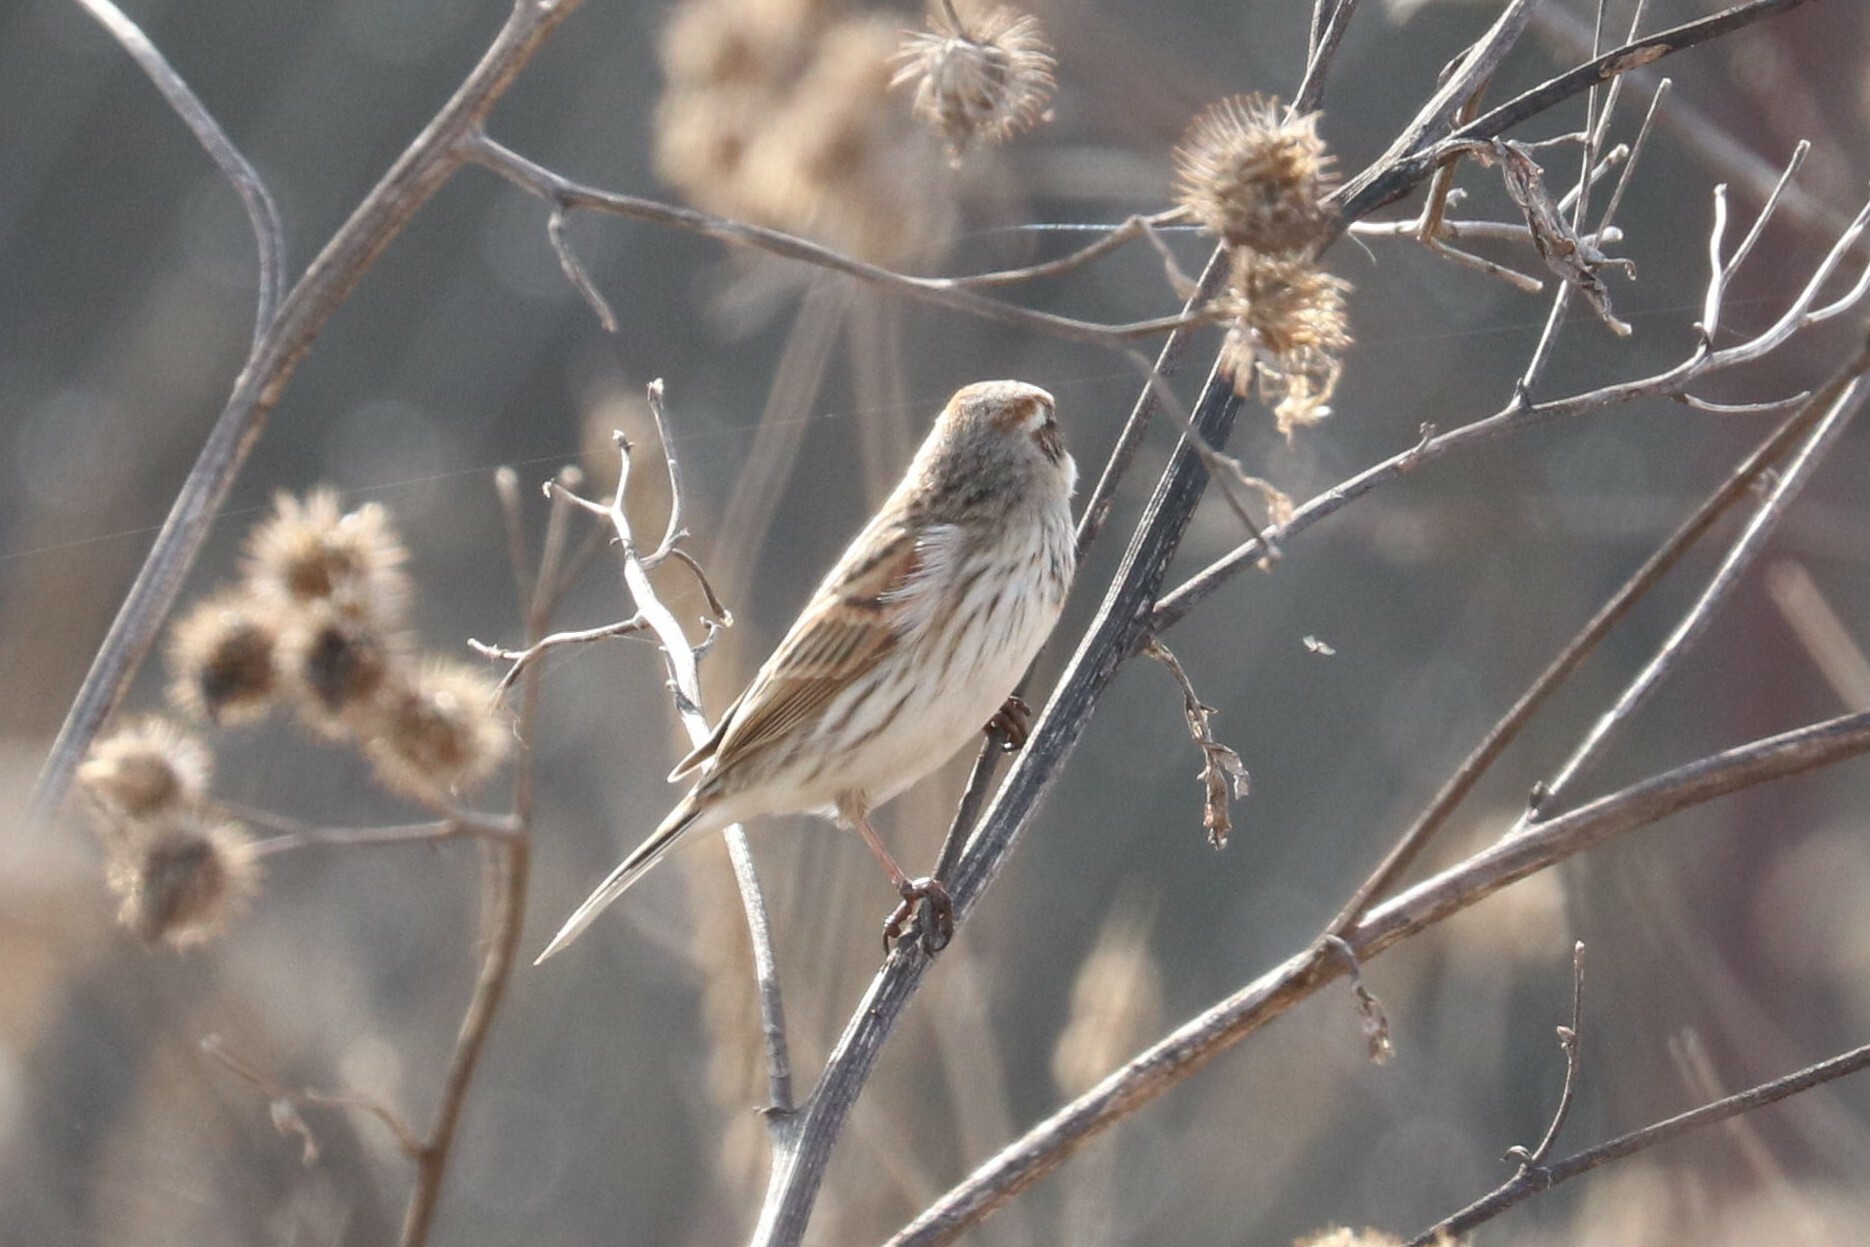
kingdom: Animalia
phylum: Chordata
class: Aves
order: Passeriformes
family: Emberizidae
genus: Emberiza
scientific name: Emberiza schoeniclus
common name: Reed bunting
